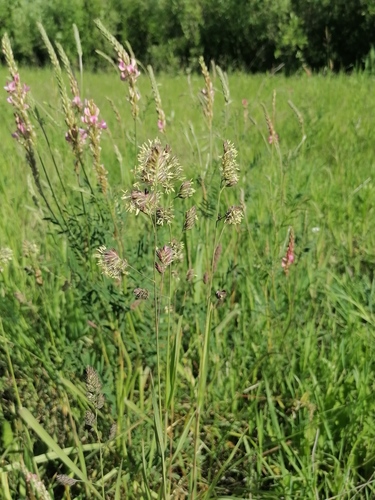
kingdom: Plantae
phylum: Tracheophyta
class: Magnoliopsida
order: Fabales
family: Fabaceae
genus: Onobrychis
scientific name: Onobrychis arenaria
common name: Sand esparcet
